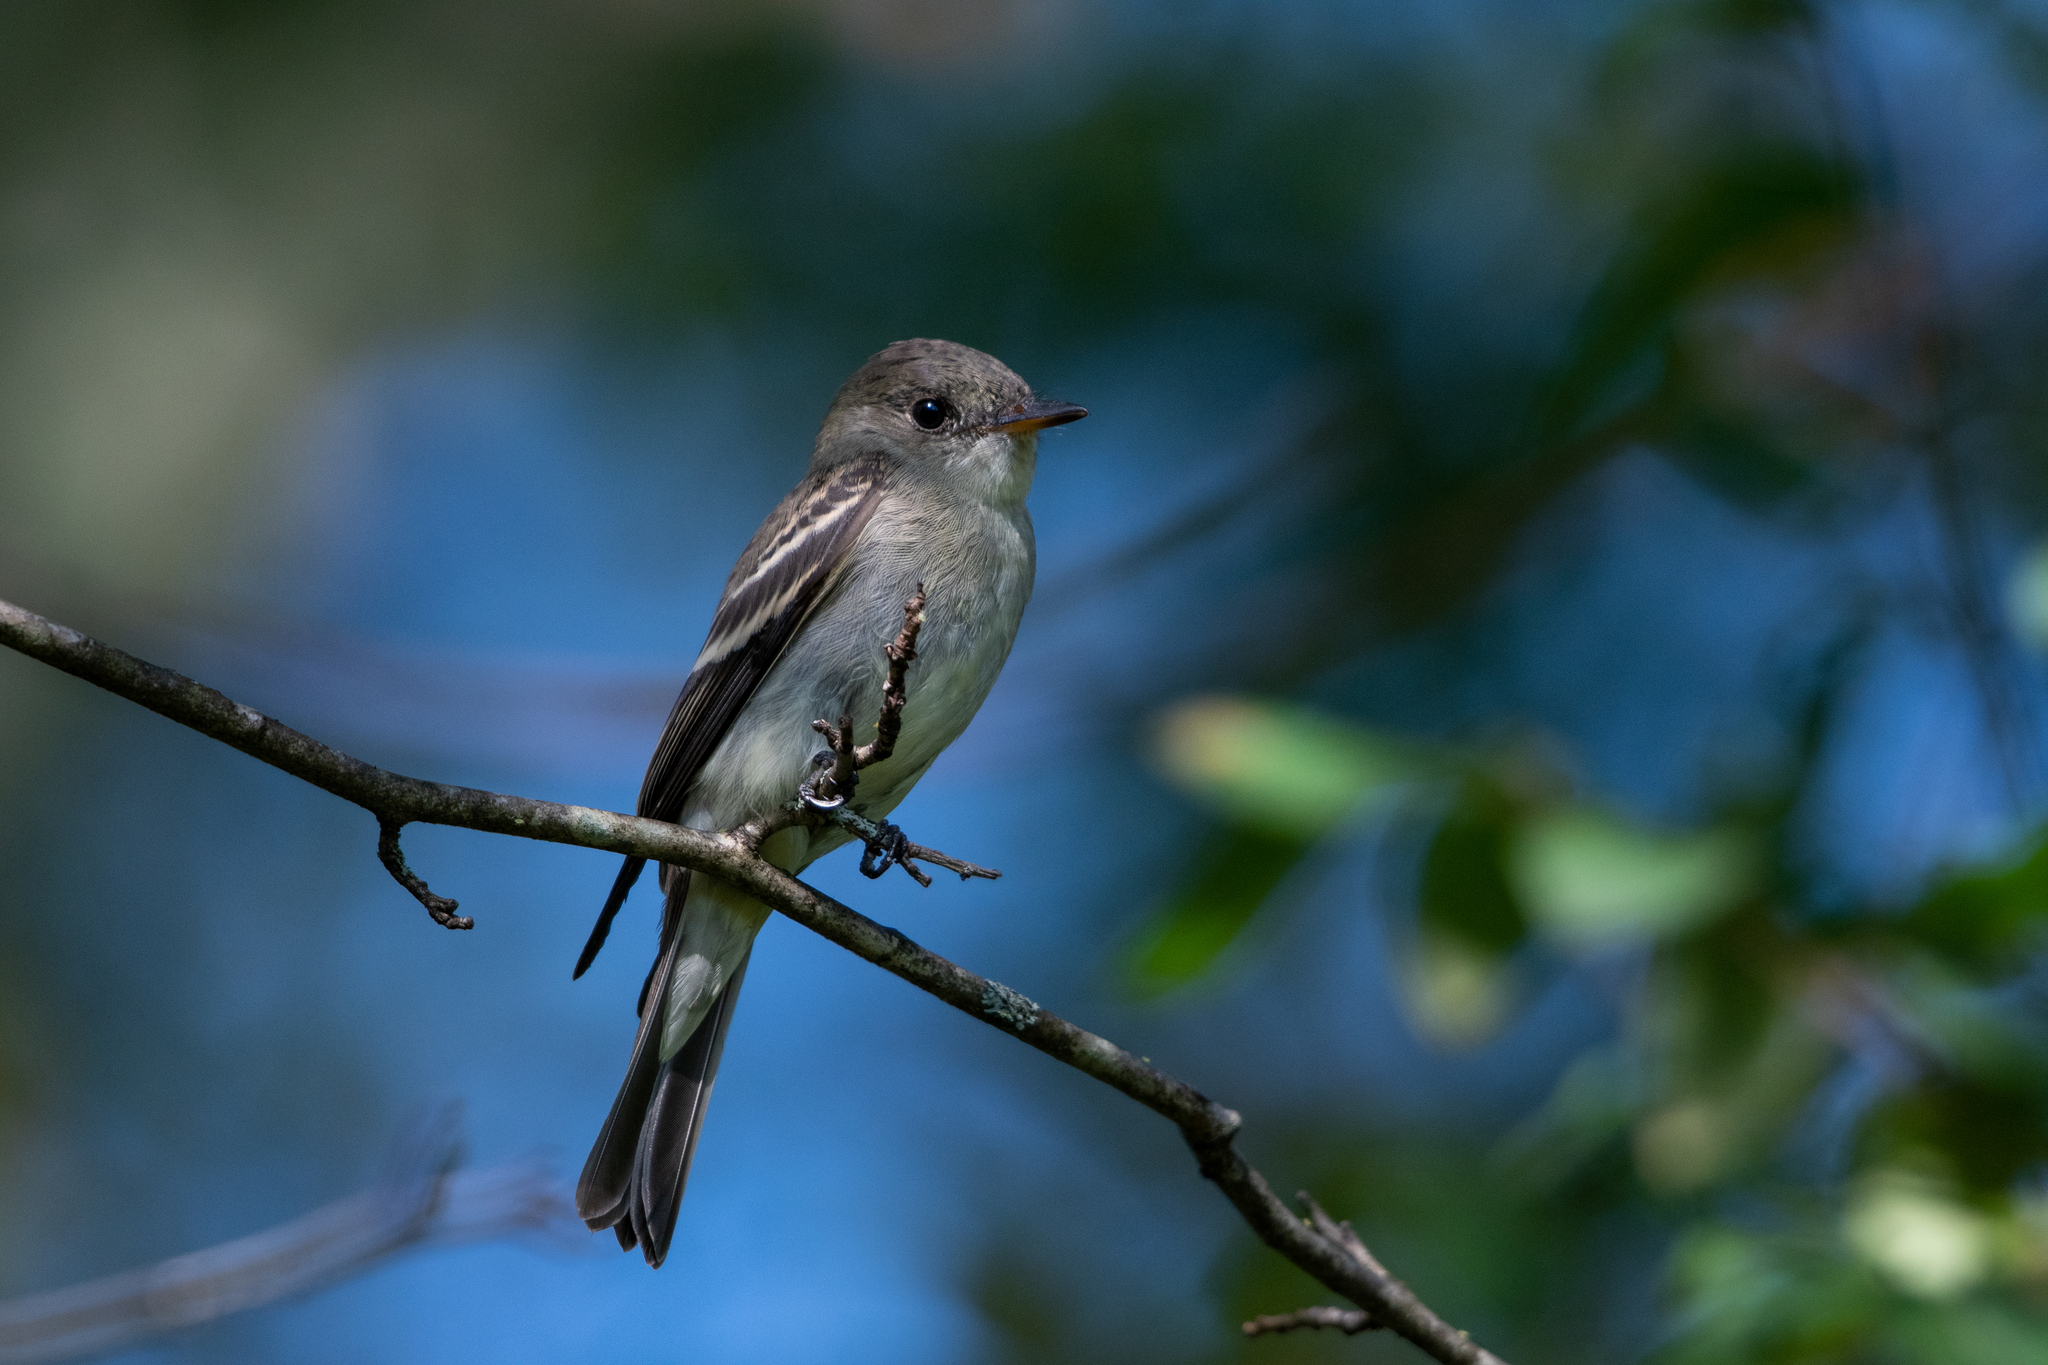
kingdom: Animalia
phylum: Chordata
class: Aves
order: Passeriformes
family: Tyrannidae
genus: Contopus
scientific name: Contopus virens
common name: Eastern wood-pewee
